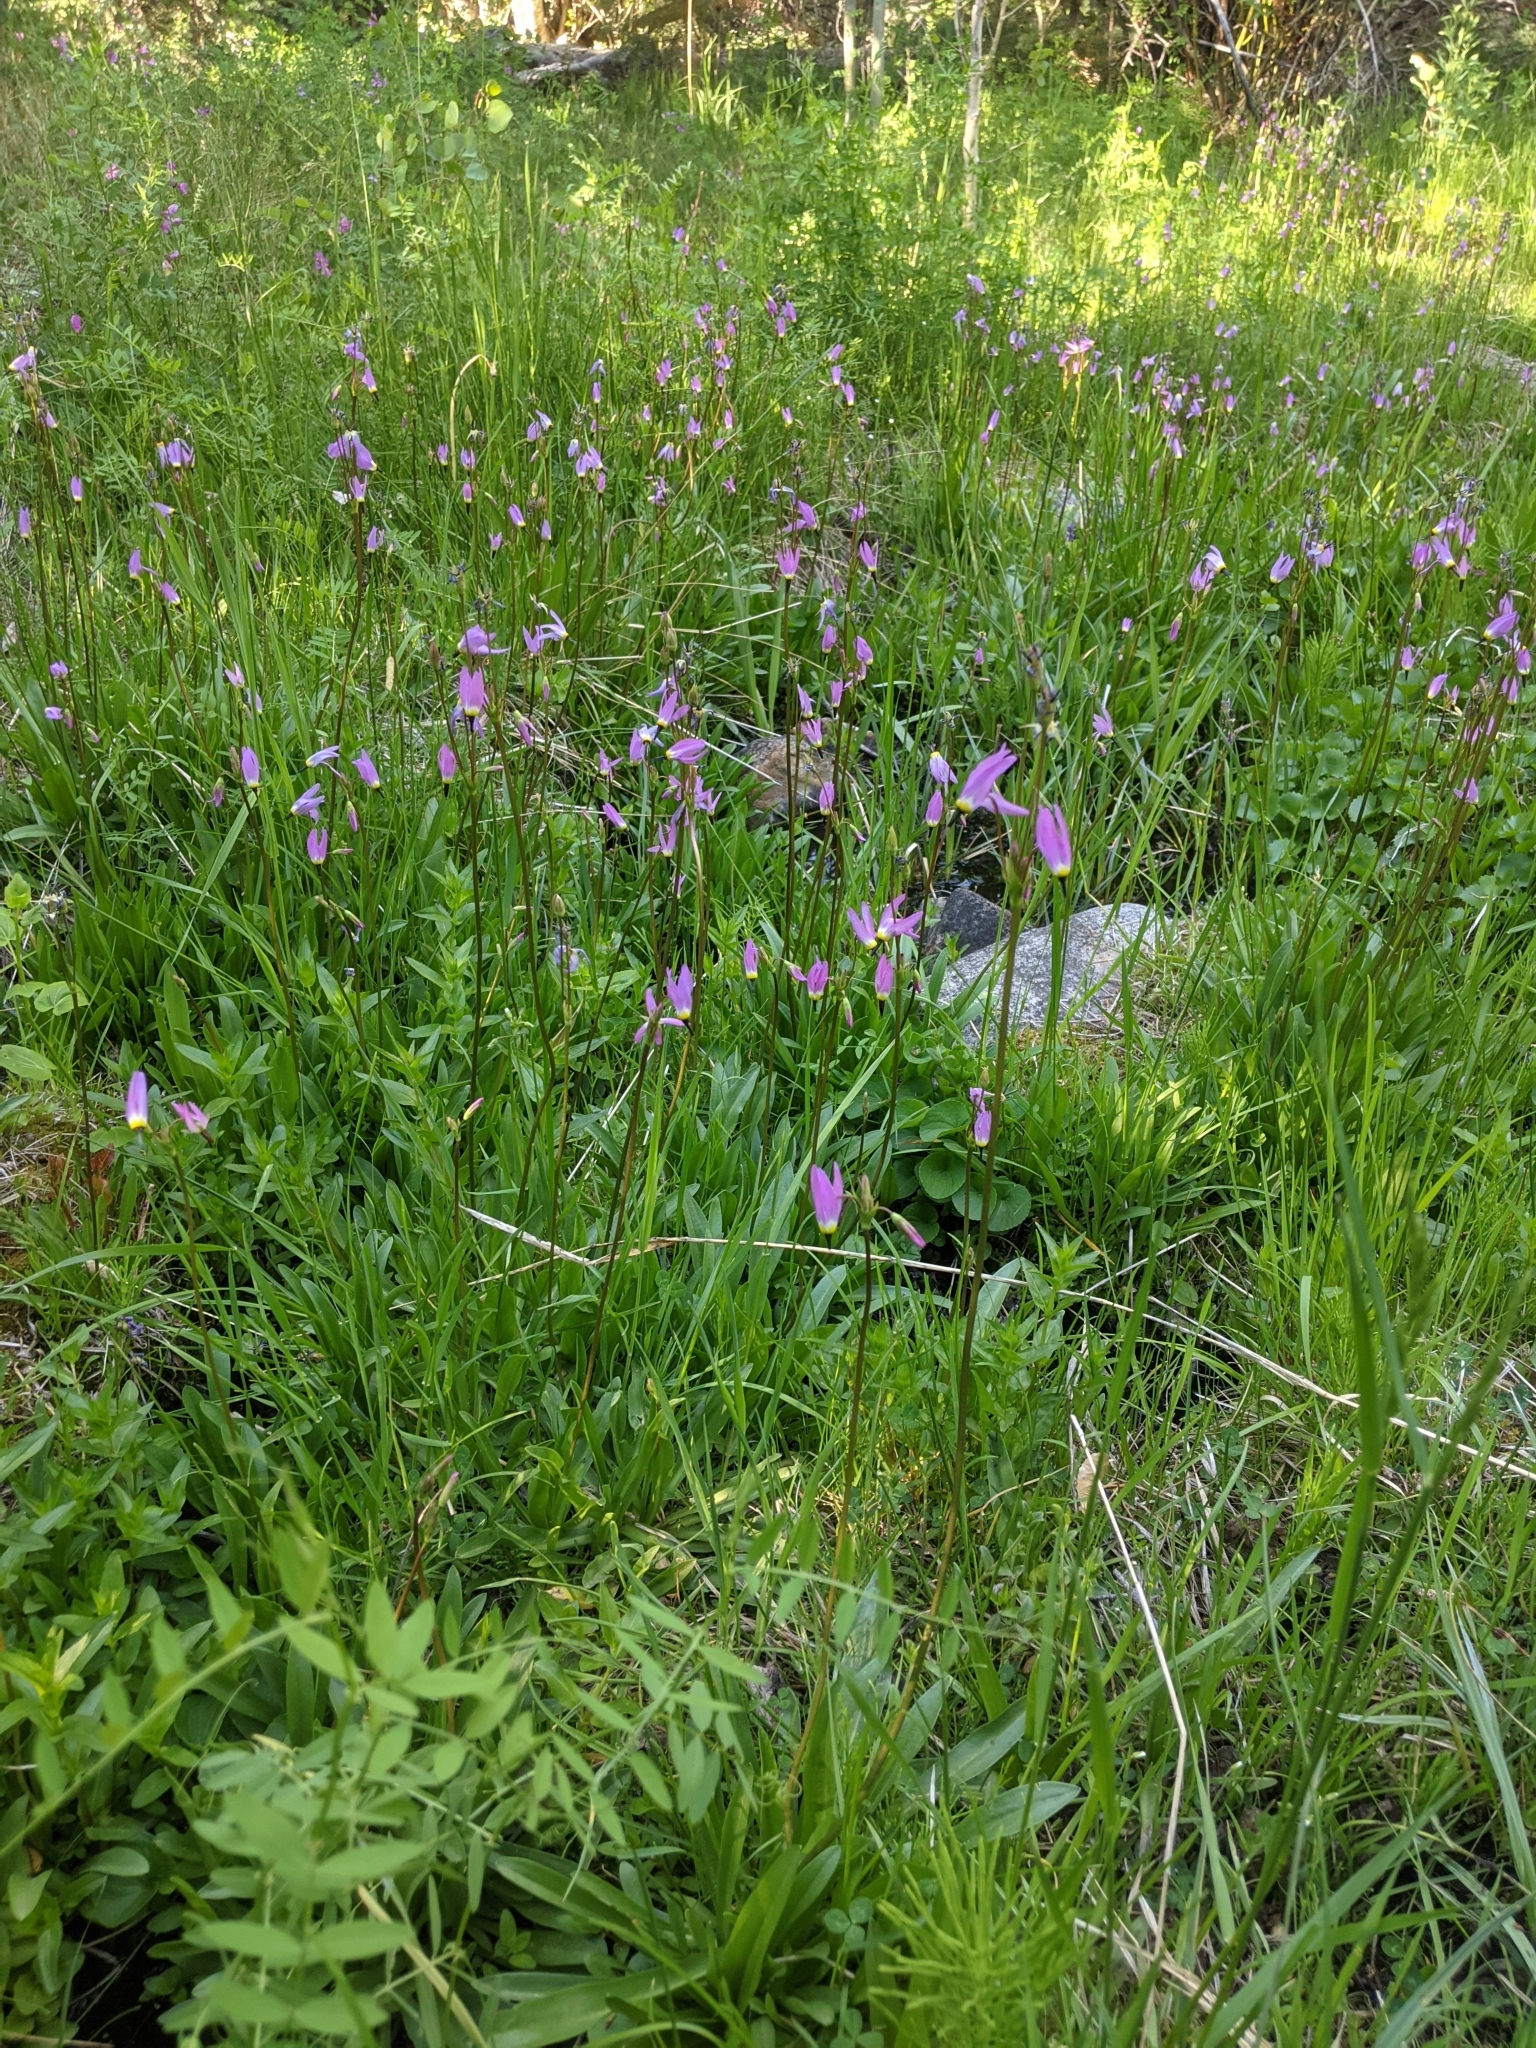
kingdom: Plantae
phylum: Tracheophyta
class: Magnoliopsida
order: Ericales
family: Primulaceae
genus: Dodecatheon
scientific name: Dodecatheon alpinum
